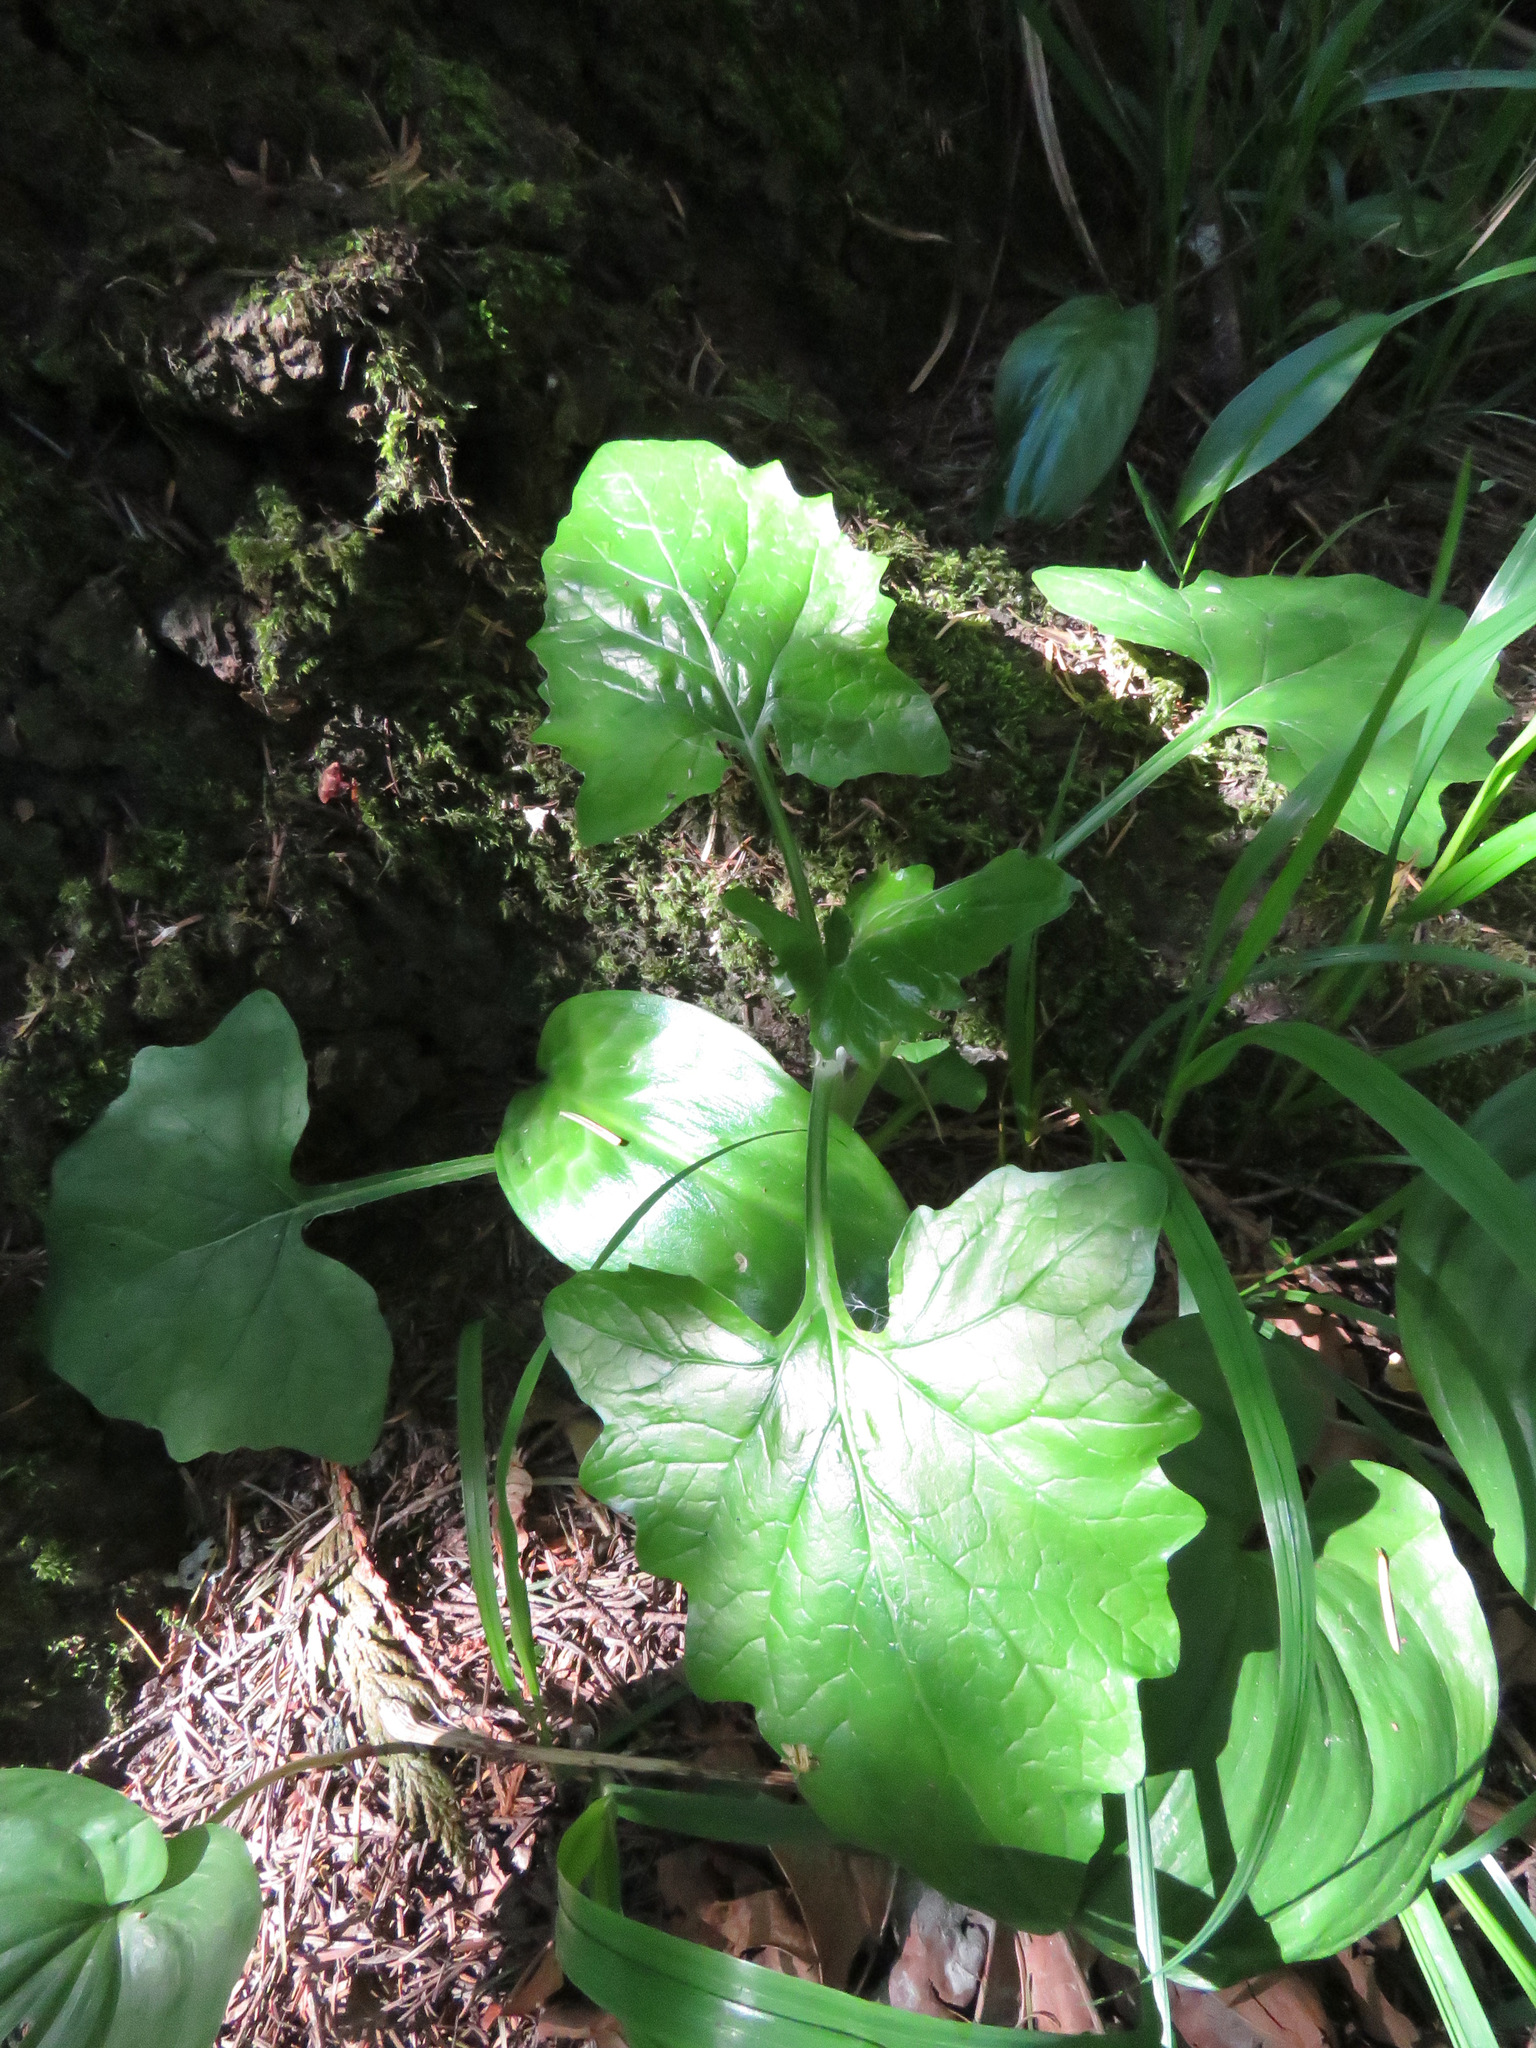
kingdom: Plantae
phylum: Tracheophyta
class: Magnoliopsida
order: Asterales
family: Asteraceae
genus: Adenocaulon
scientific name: Adenocaulon bicolor
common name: Trailplant
